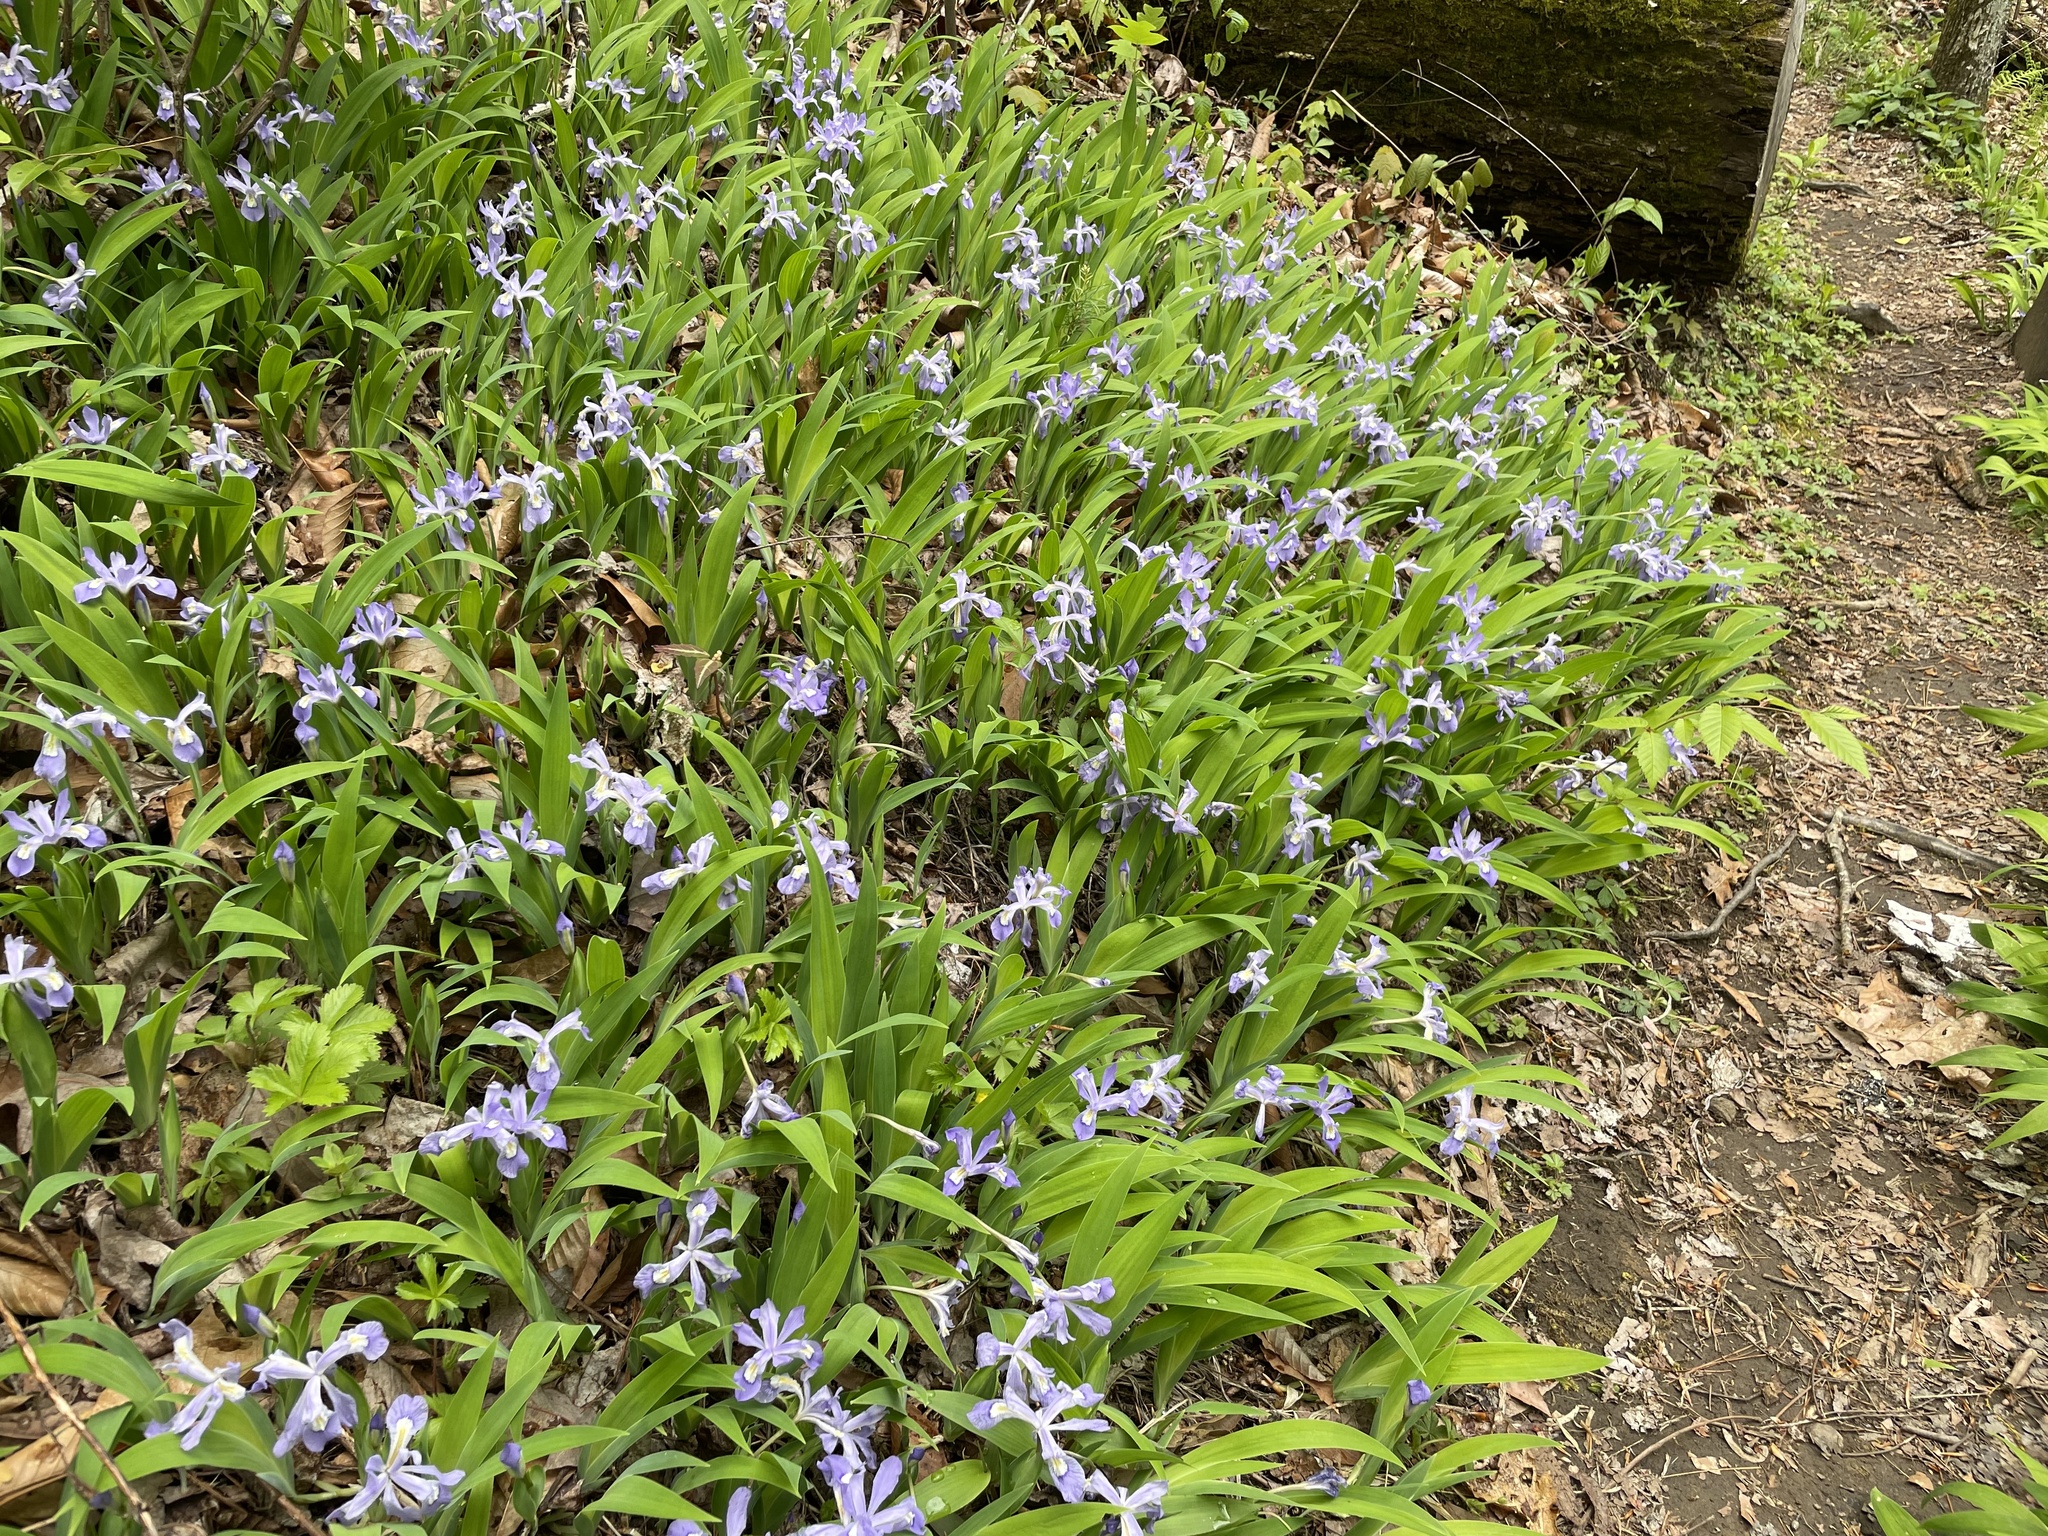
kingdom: Plantae
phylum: Tracheophyta
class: Liliopsida
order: Asparagales
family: Iridaceae
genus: Iris
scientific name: Iris cristata
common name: Crested iris
